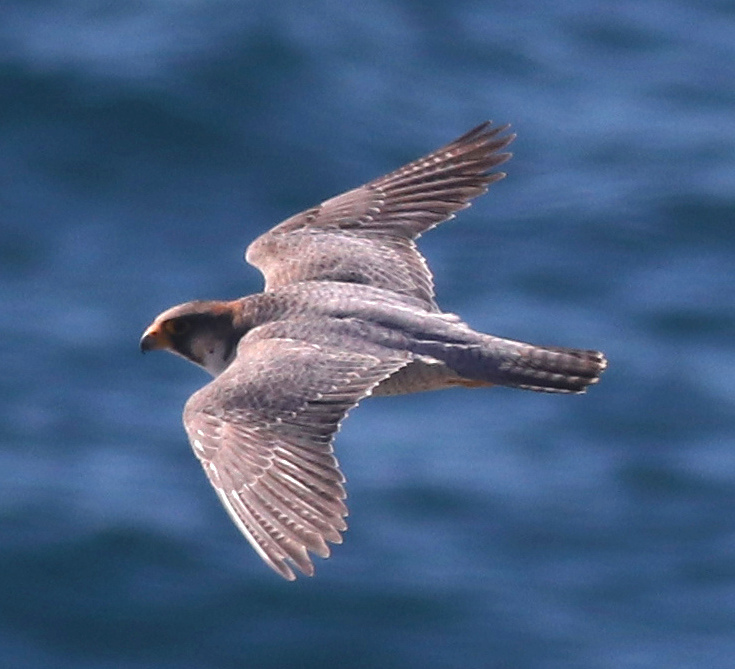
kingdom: Animalia
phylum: Chordata
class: Aves
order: Falconiformes
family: Falconidae
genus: Falco
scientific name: Falco peregrinus
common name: Peregrine falcon
